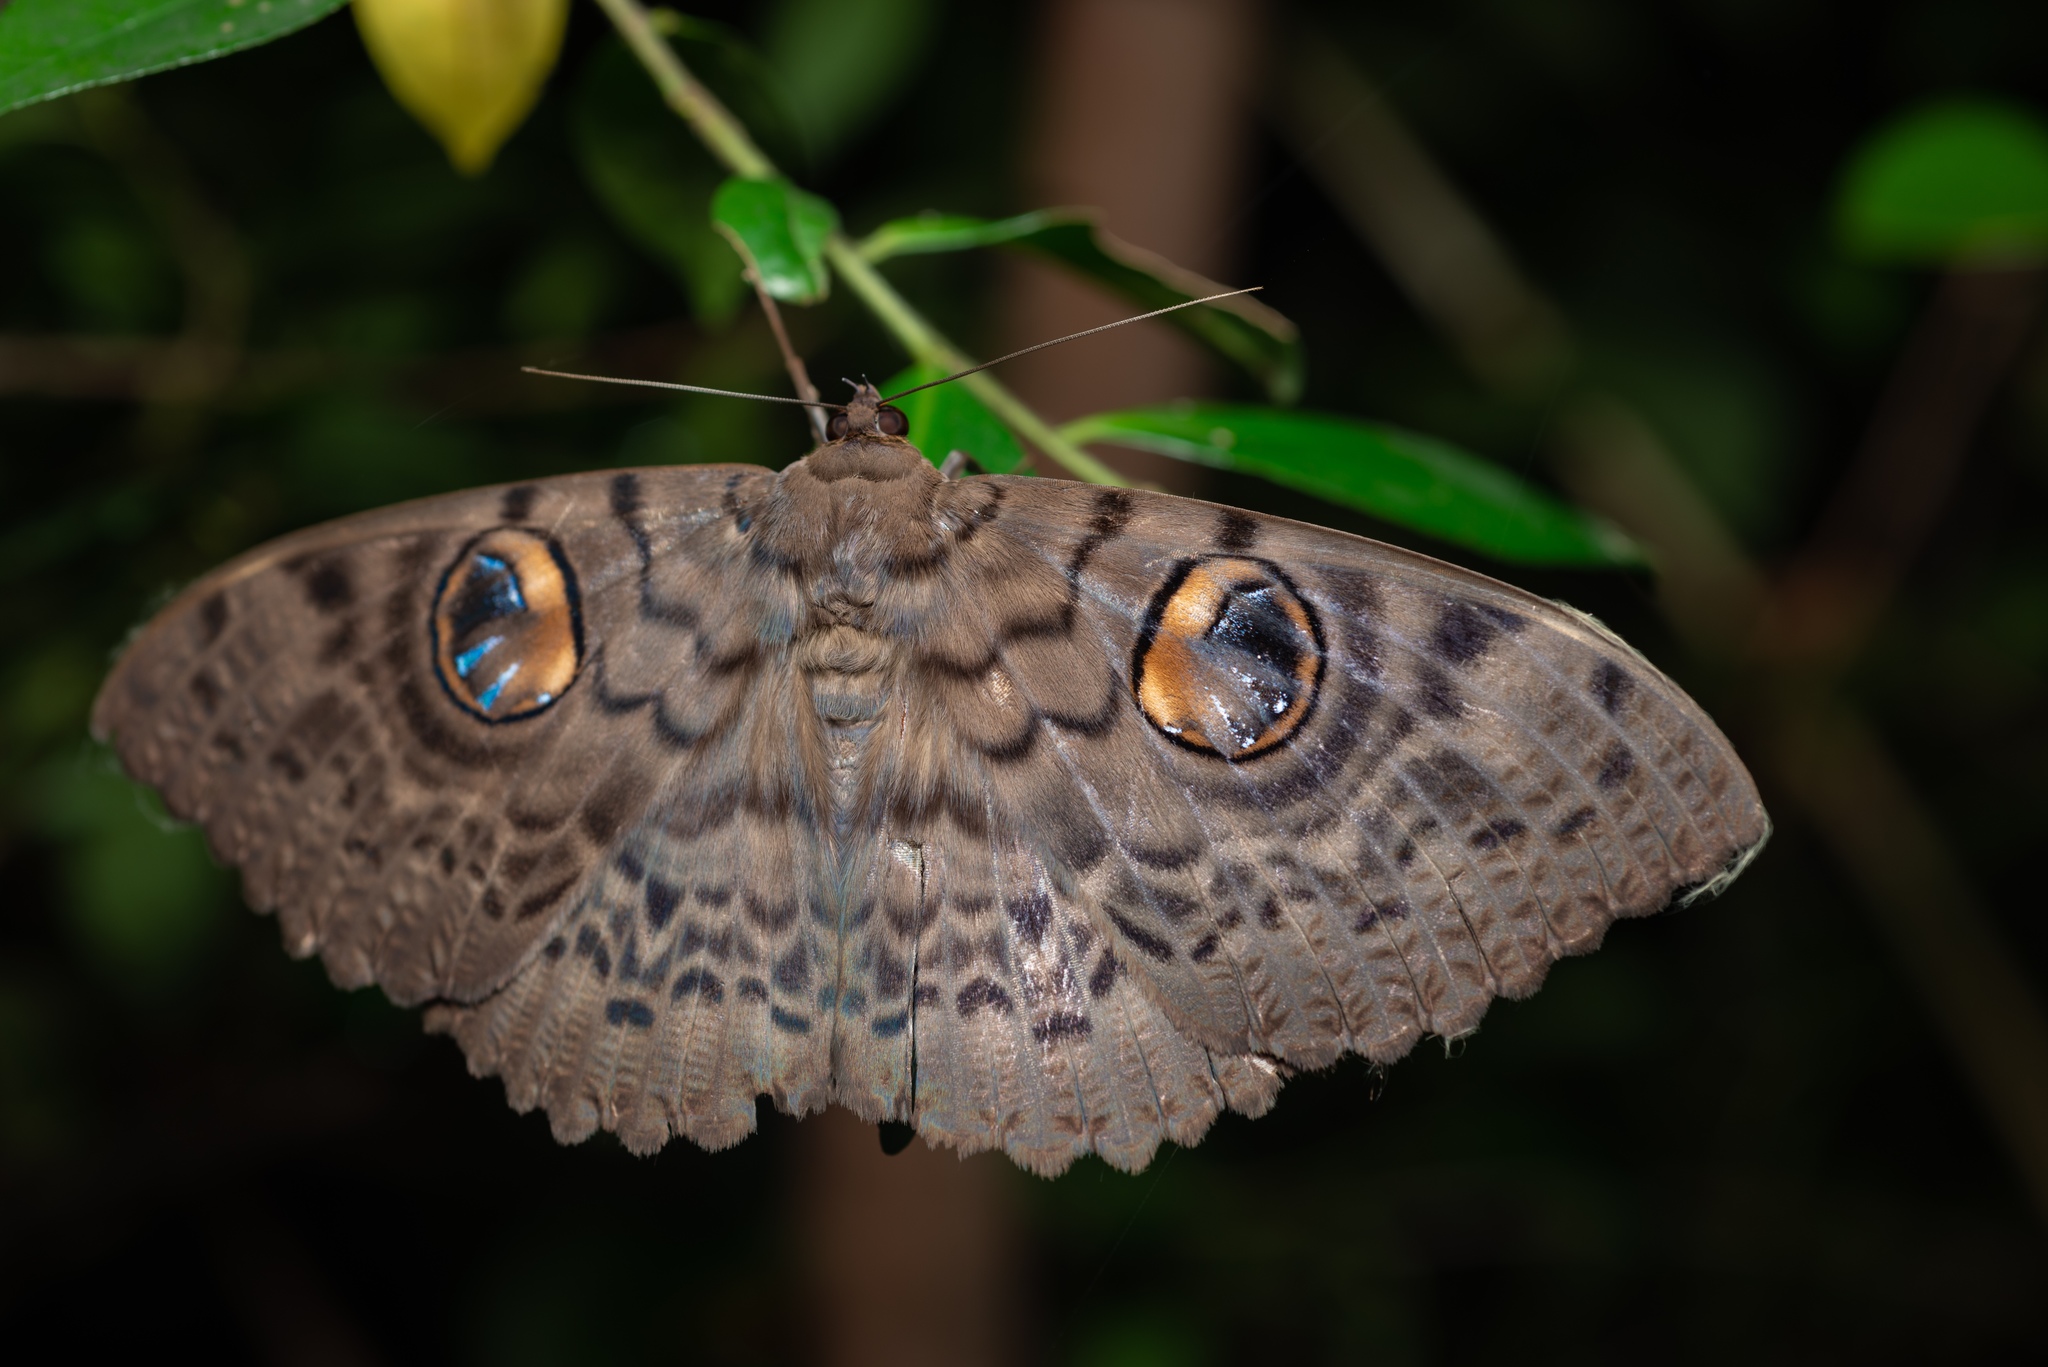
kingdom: Animalia
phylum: Arthropoda
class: Insecta
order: Lepidoptera
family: Erebidae
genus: Erebus
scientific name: Erebus macrops
